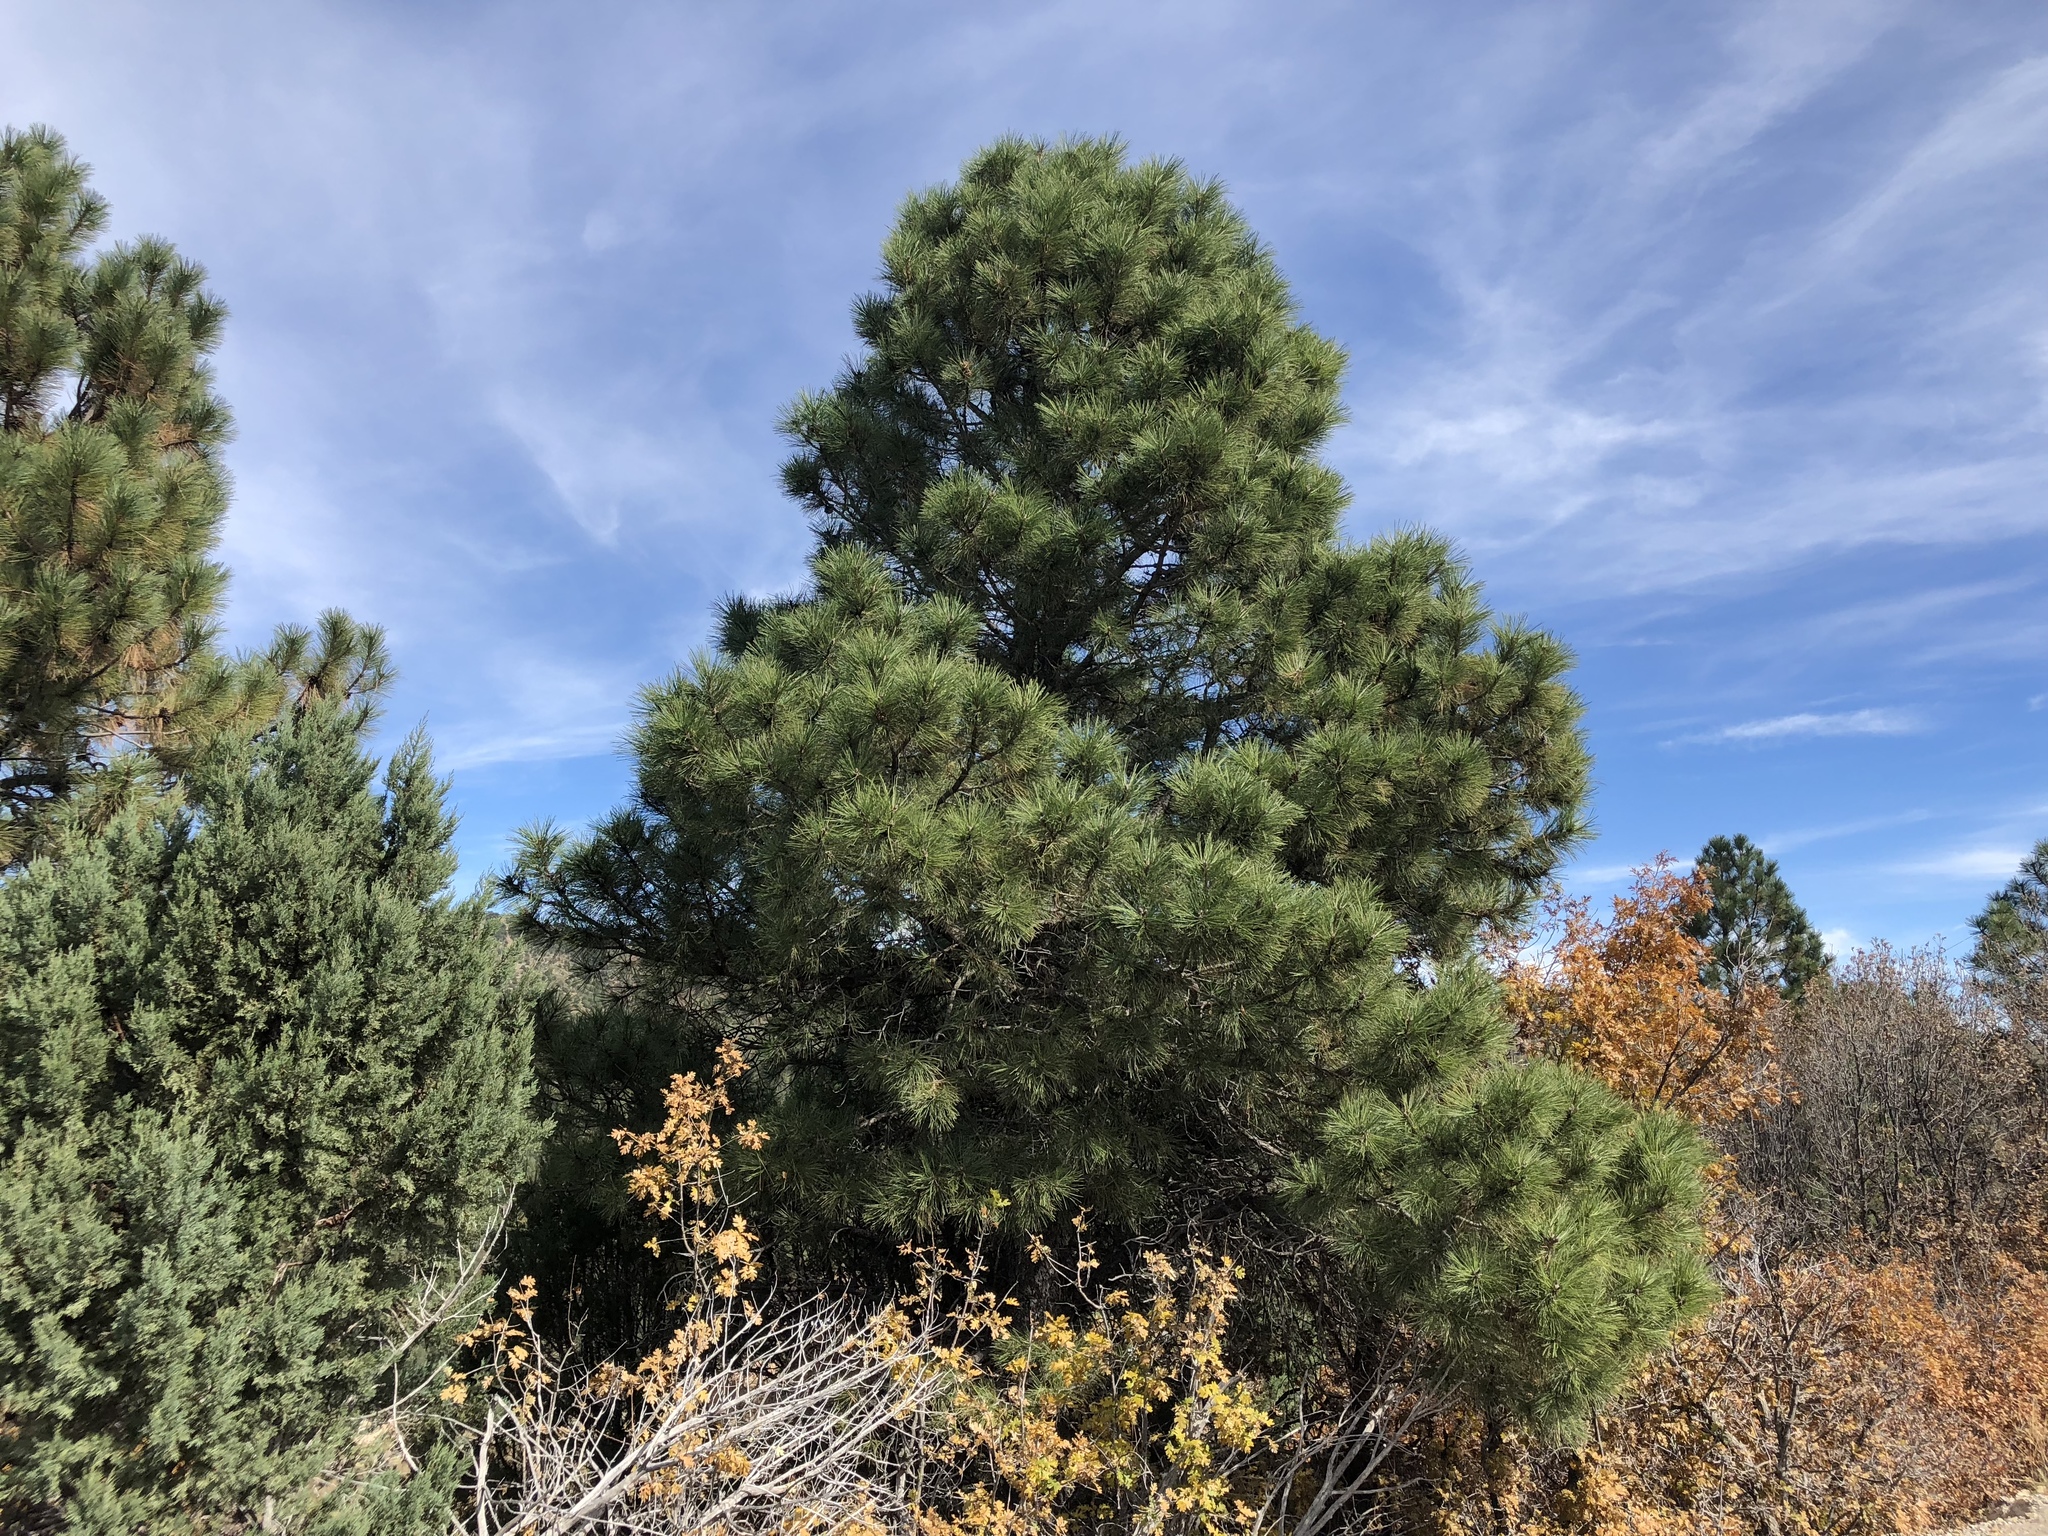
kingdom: Plantae
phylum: Tracheophyta
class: Pinopsida
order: Pinales
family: Pinaceae
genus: Pinus
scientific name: Pinus ponderosa
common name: Western yellow-pine
